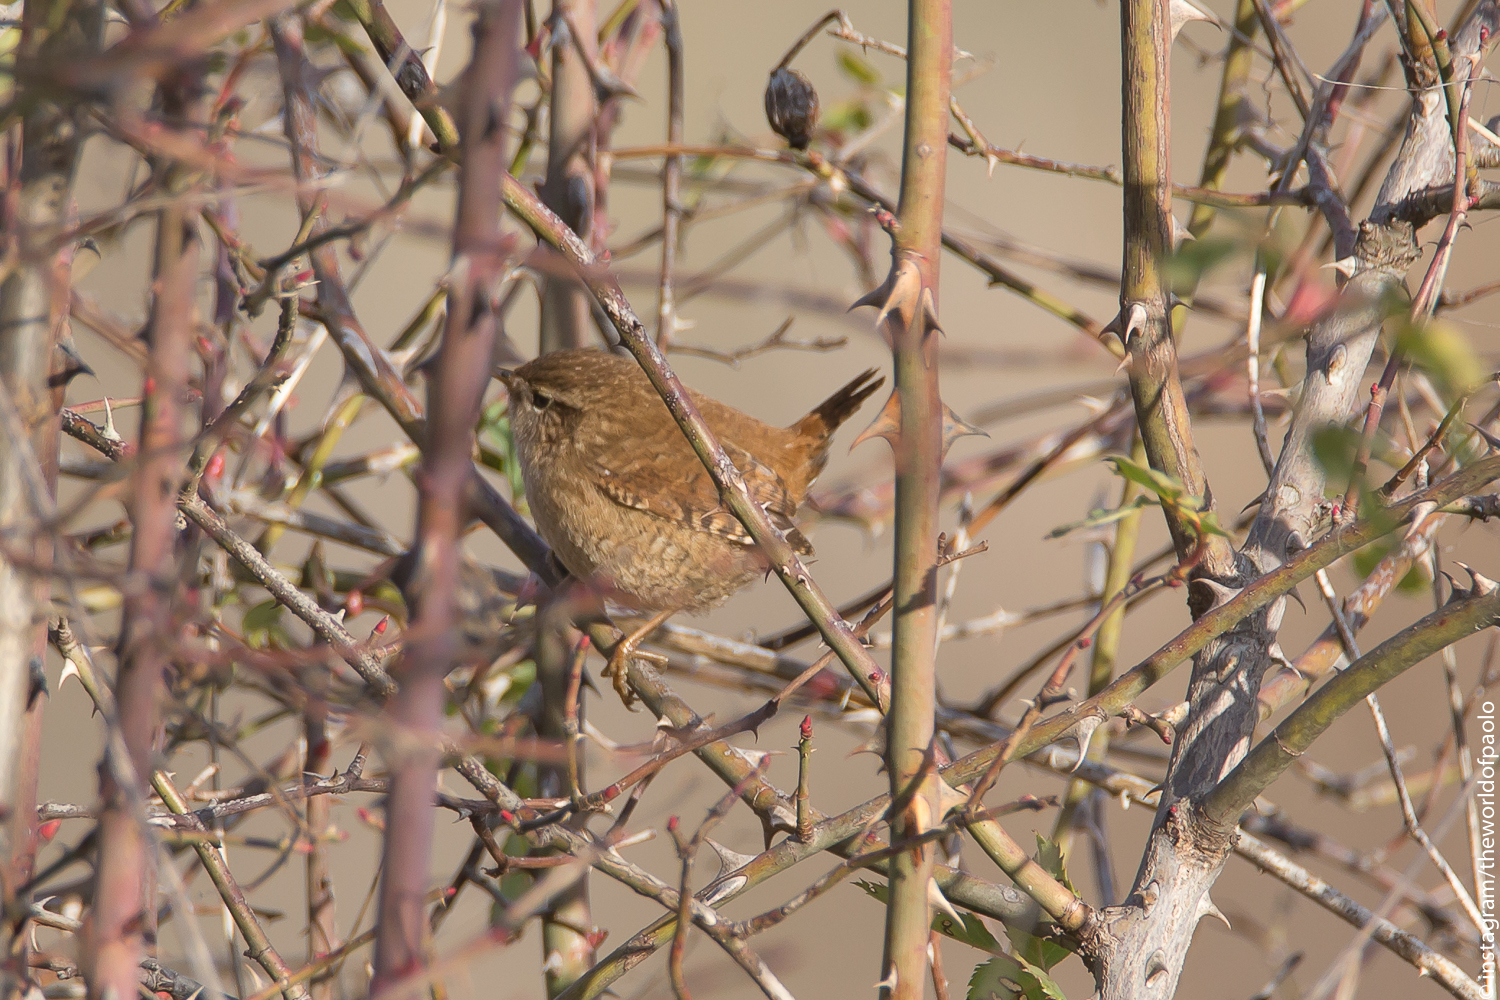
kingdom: Animalia
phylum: Chordata
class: Aves
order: Passeriformes
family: Troglodytidae
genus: Troglodytes
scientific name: Troglodytes troglodytes
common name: Eurasian wren
